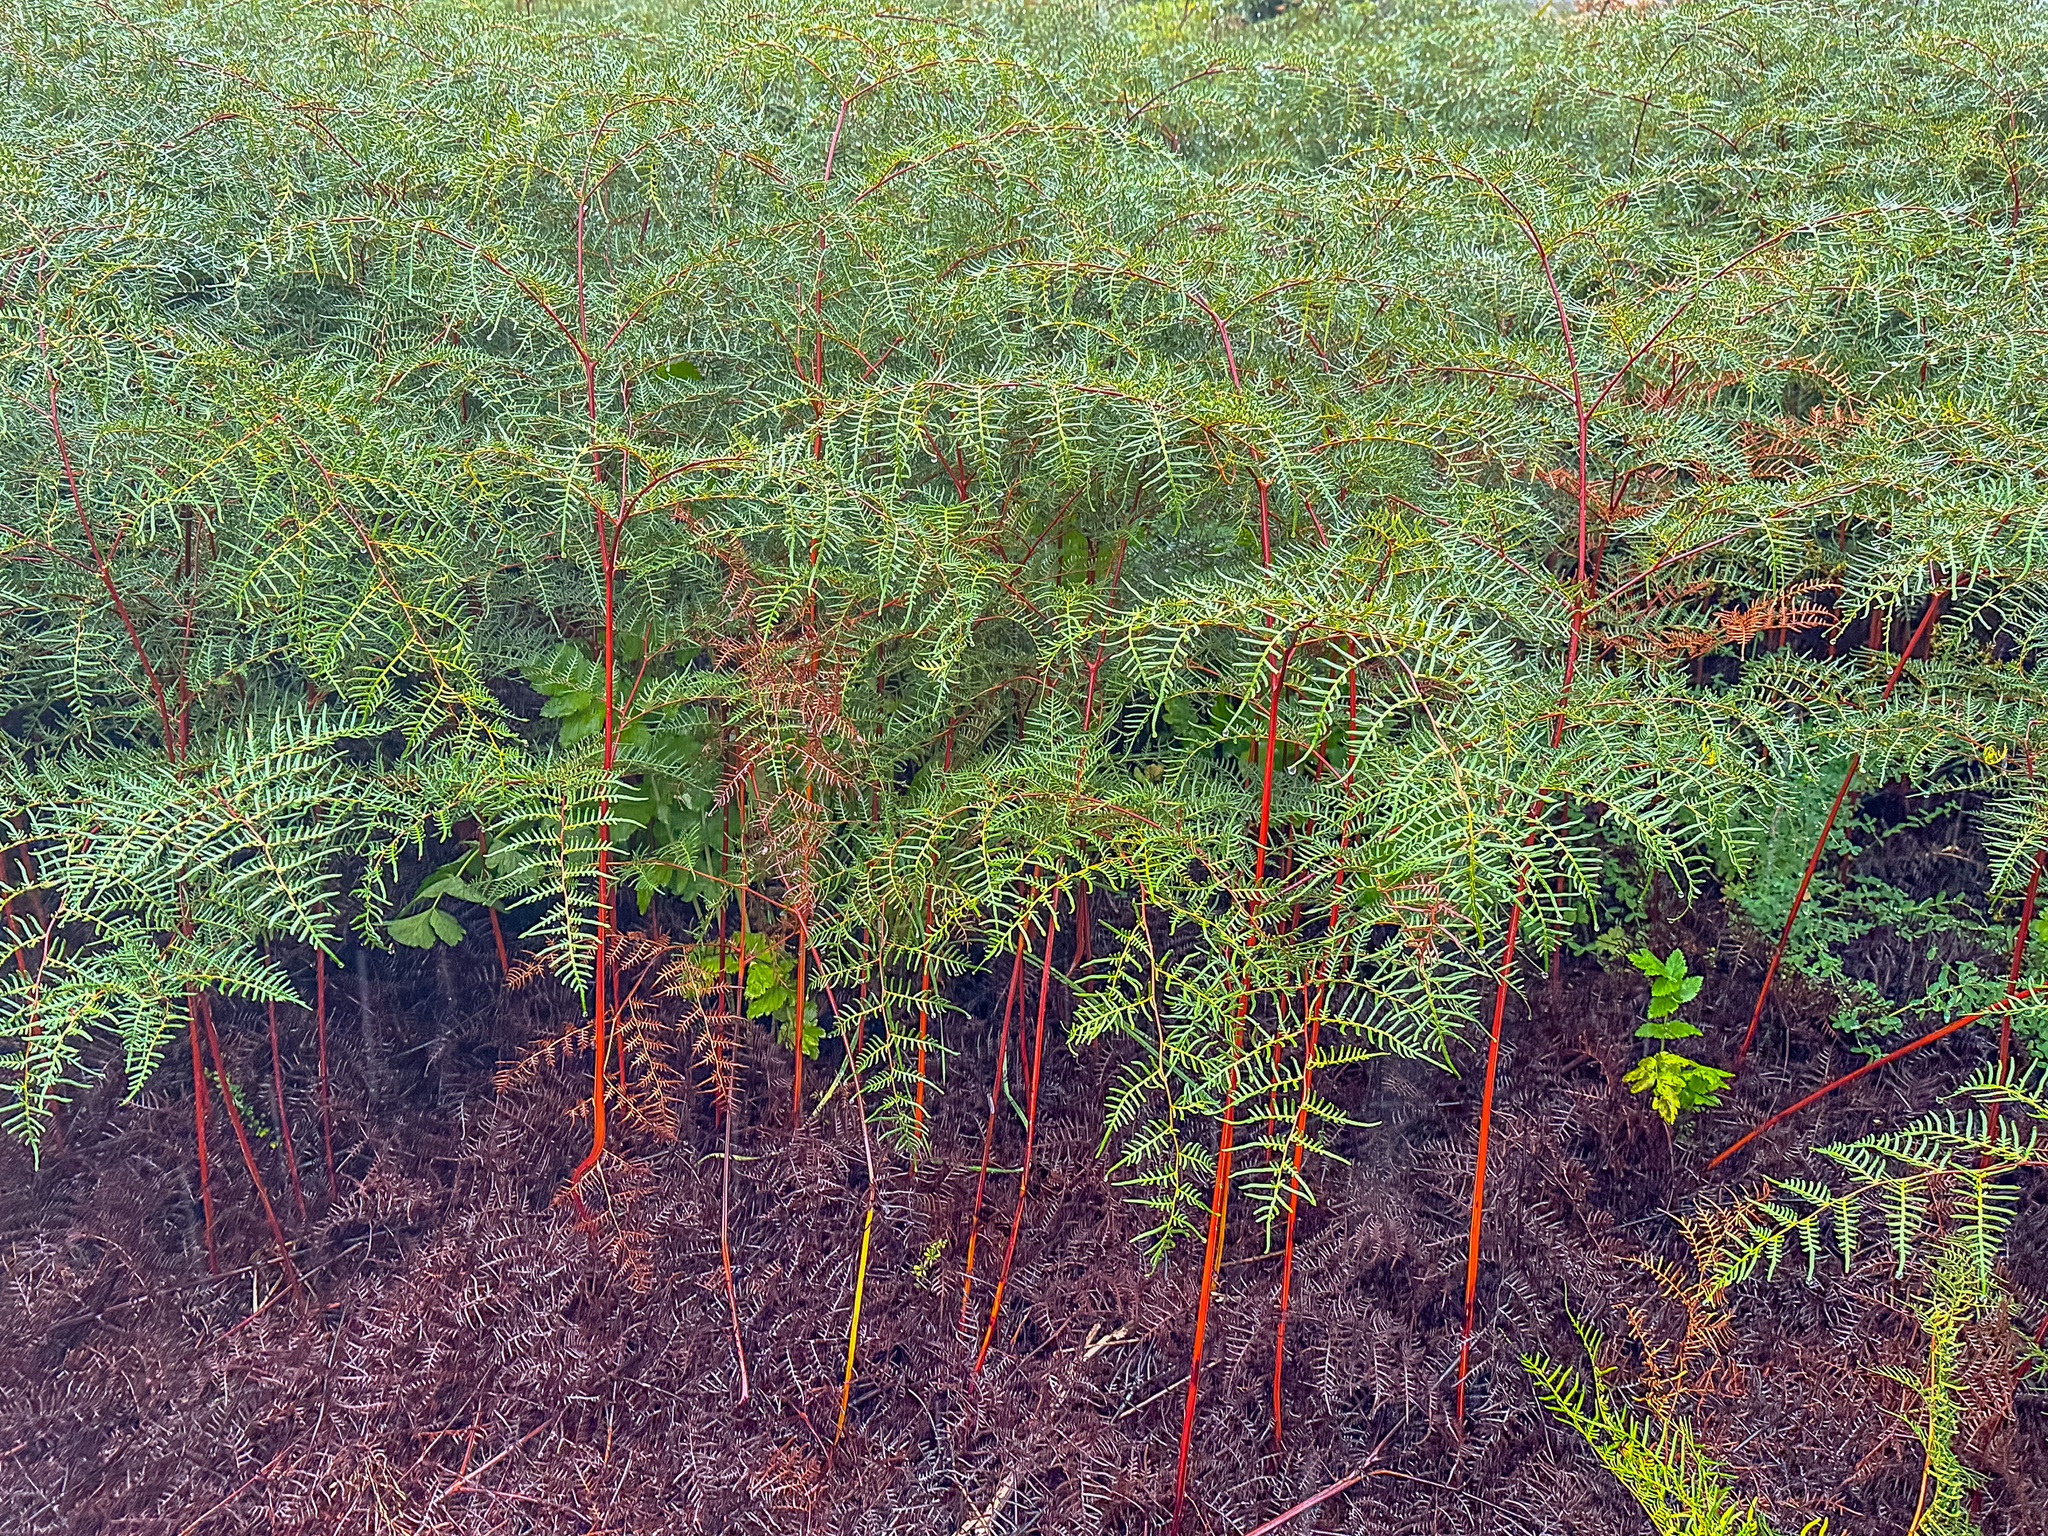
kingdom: Plantae
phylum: Tracheophyta
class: Polypodiopsida
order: Polypodiales
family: Dennstaedtiaceae
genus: Pteridium
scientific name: Pteridium esculentum
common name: Bracken fern
